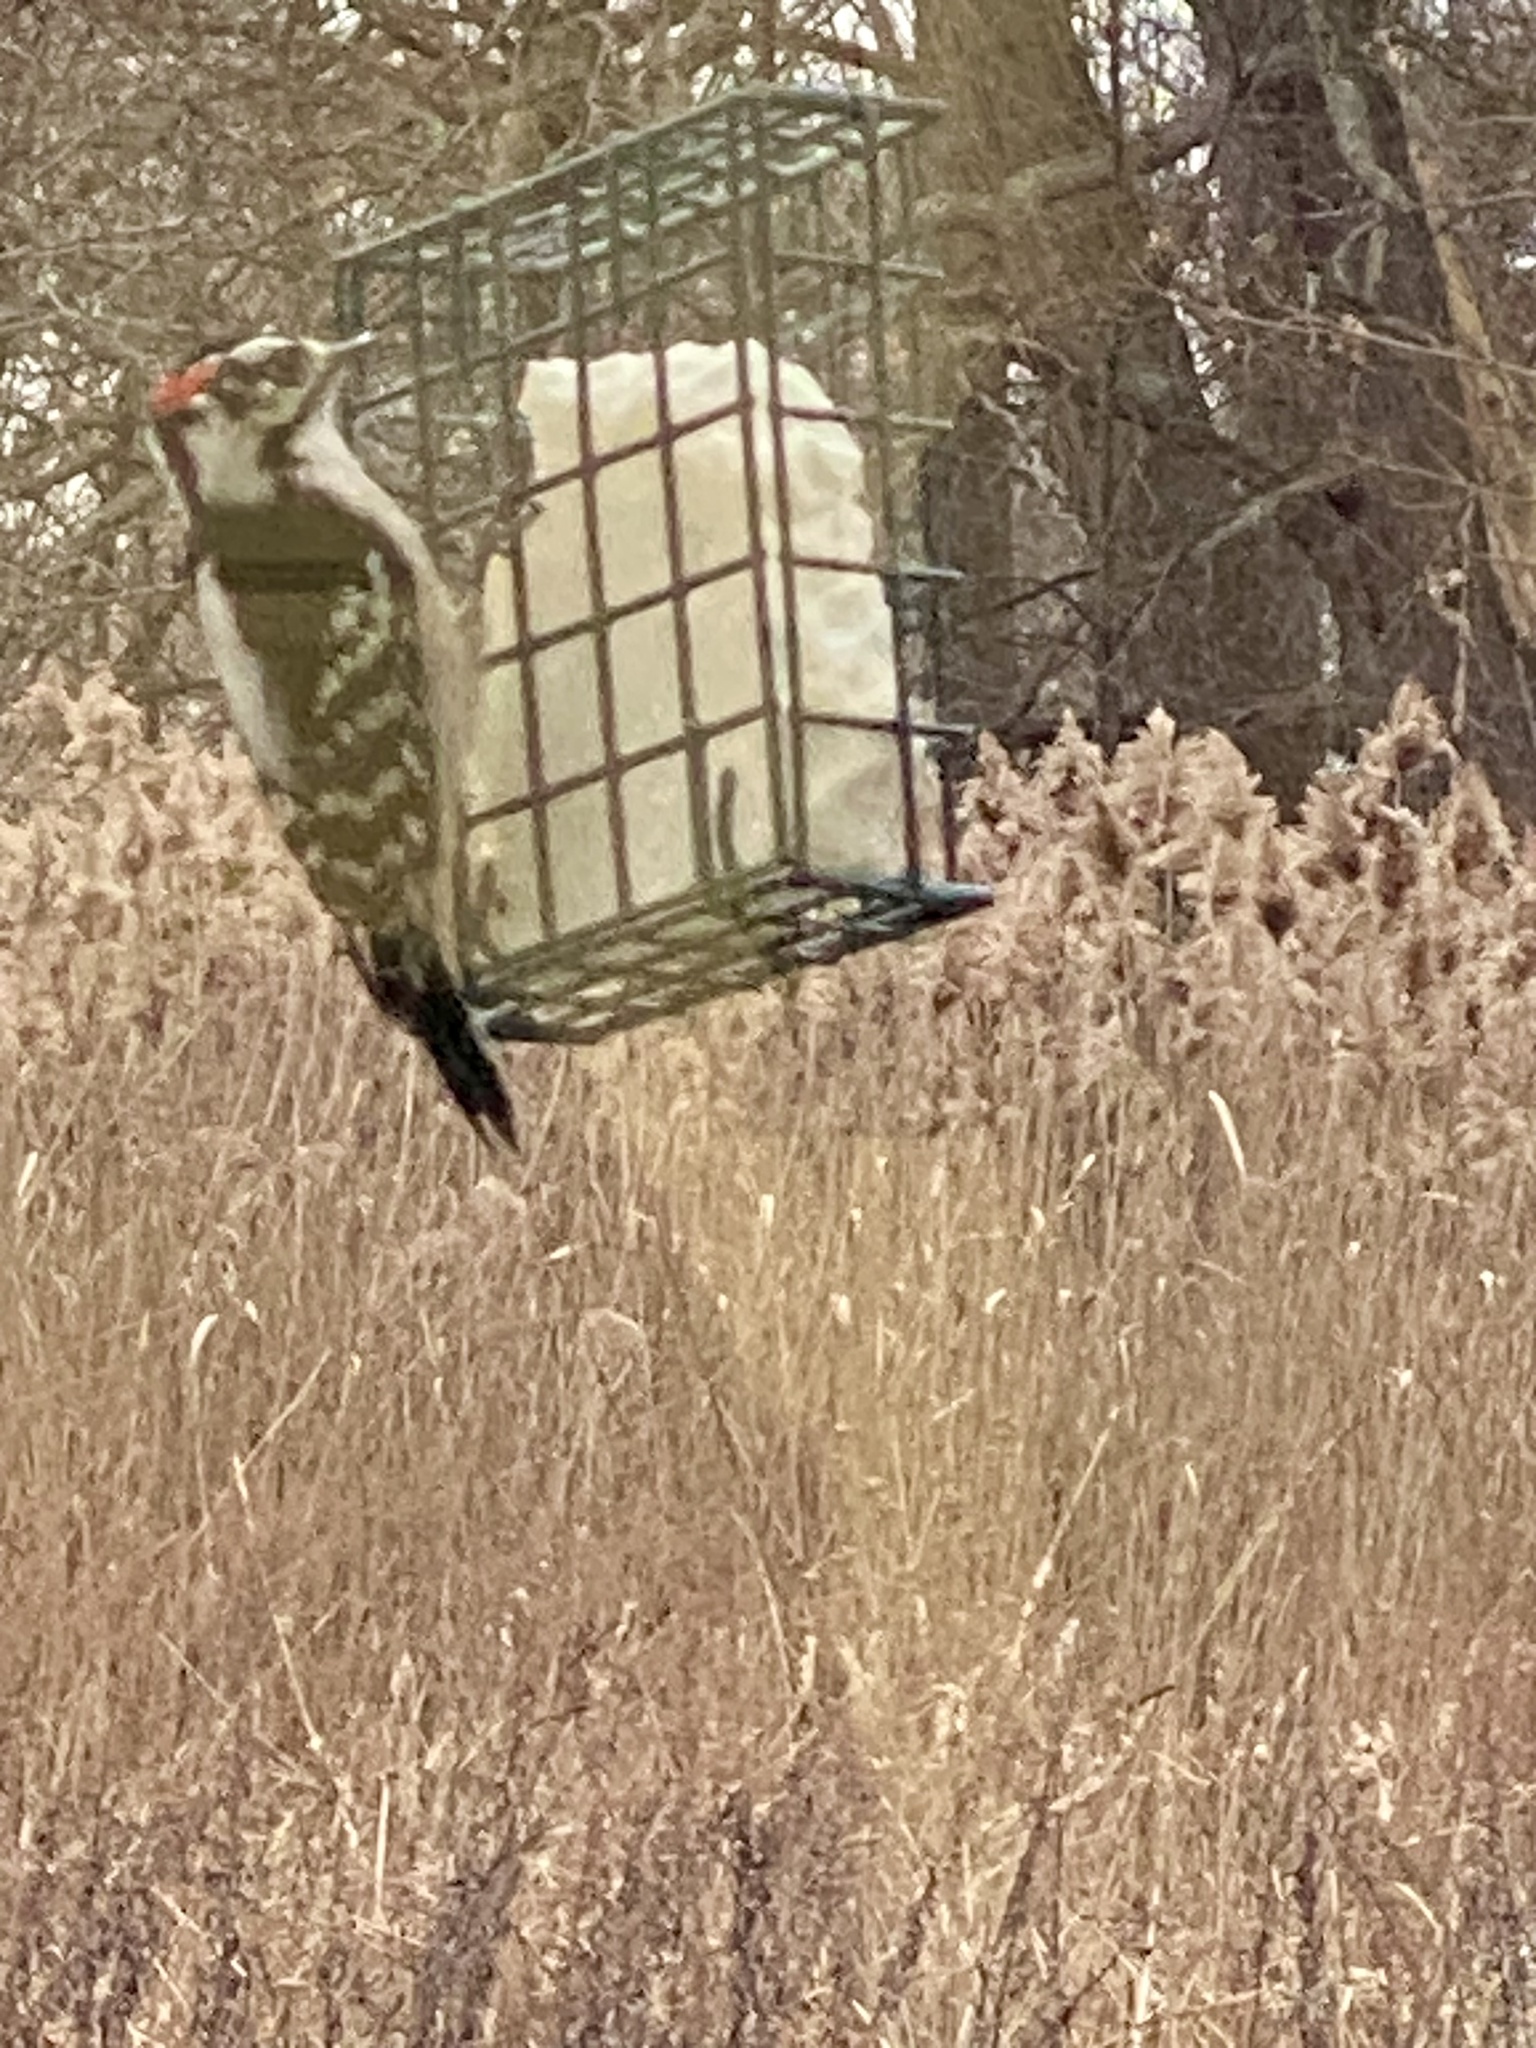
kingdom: Animalia
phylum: Chordata
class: Aves
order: Piciformes
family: Picidae
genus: Dryobates
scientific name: Dryobates pubescens
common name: Downy woodpecker
